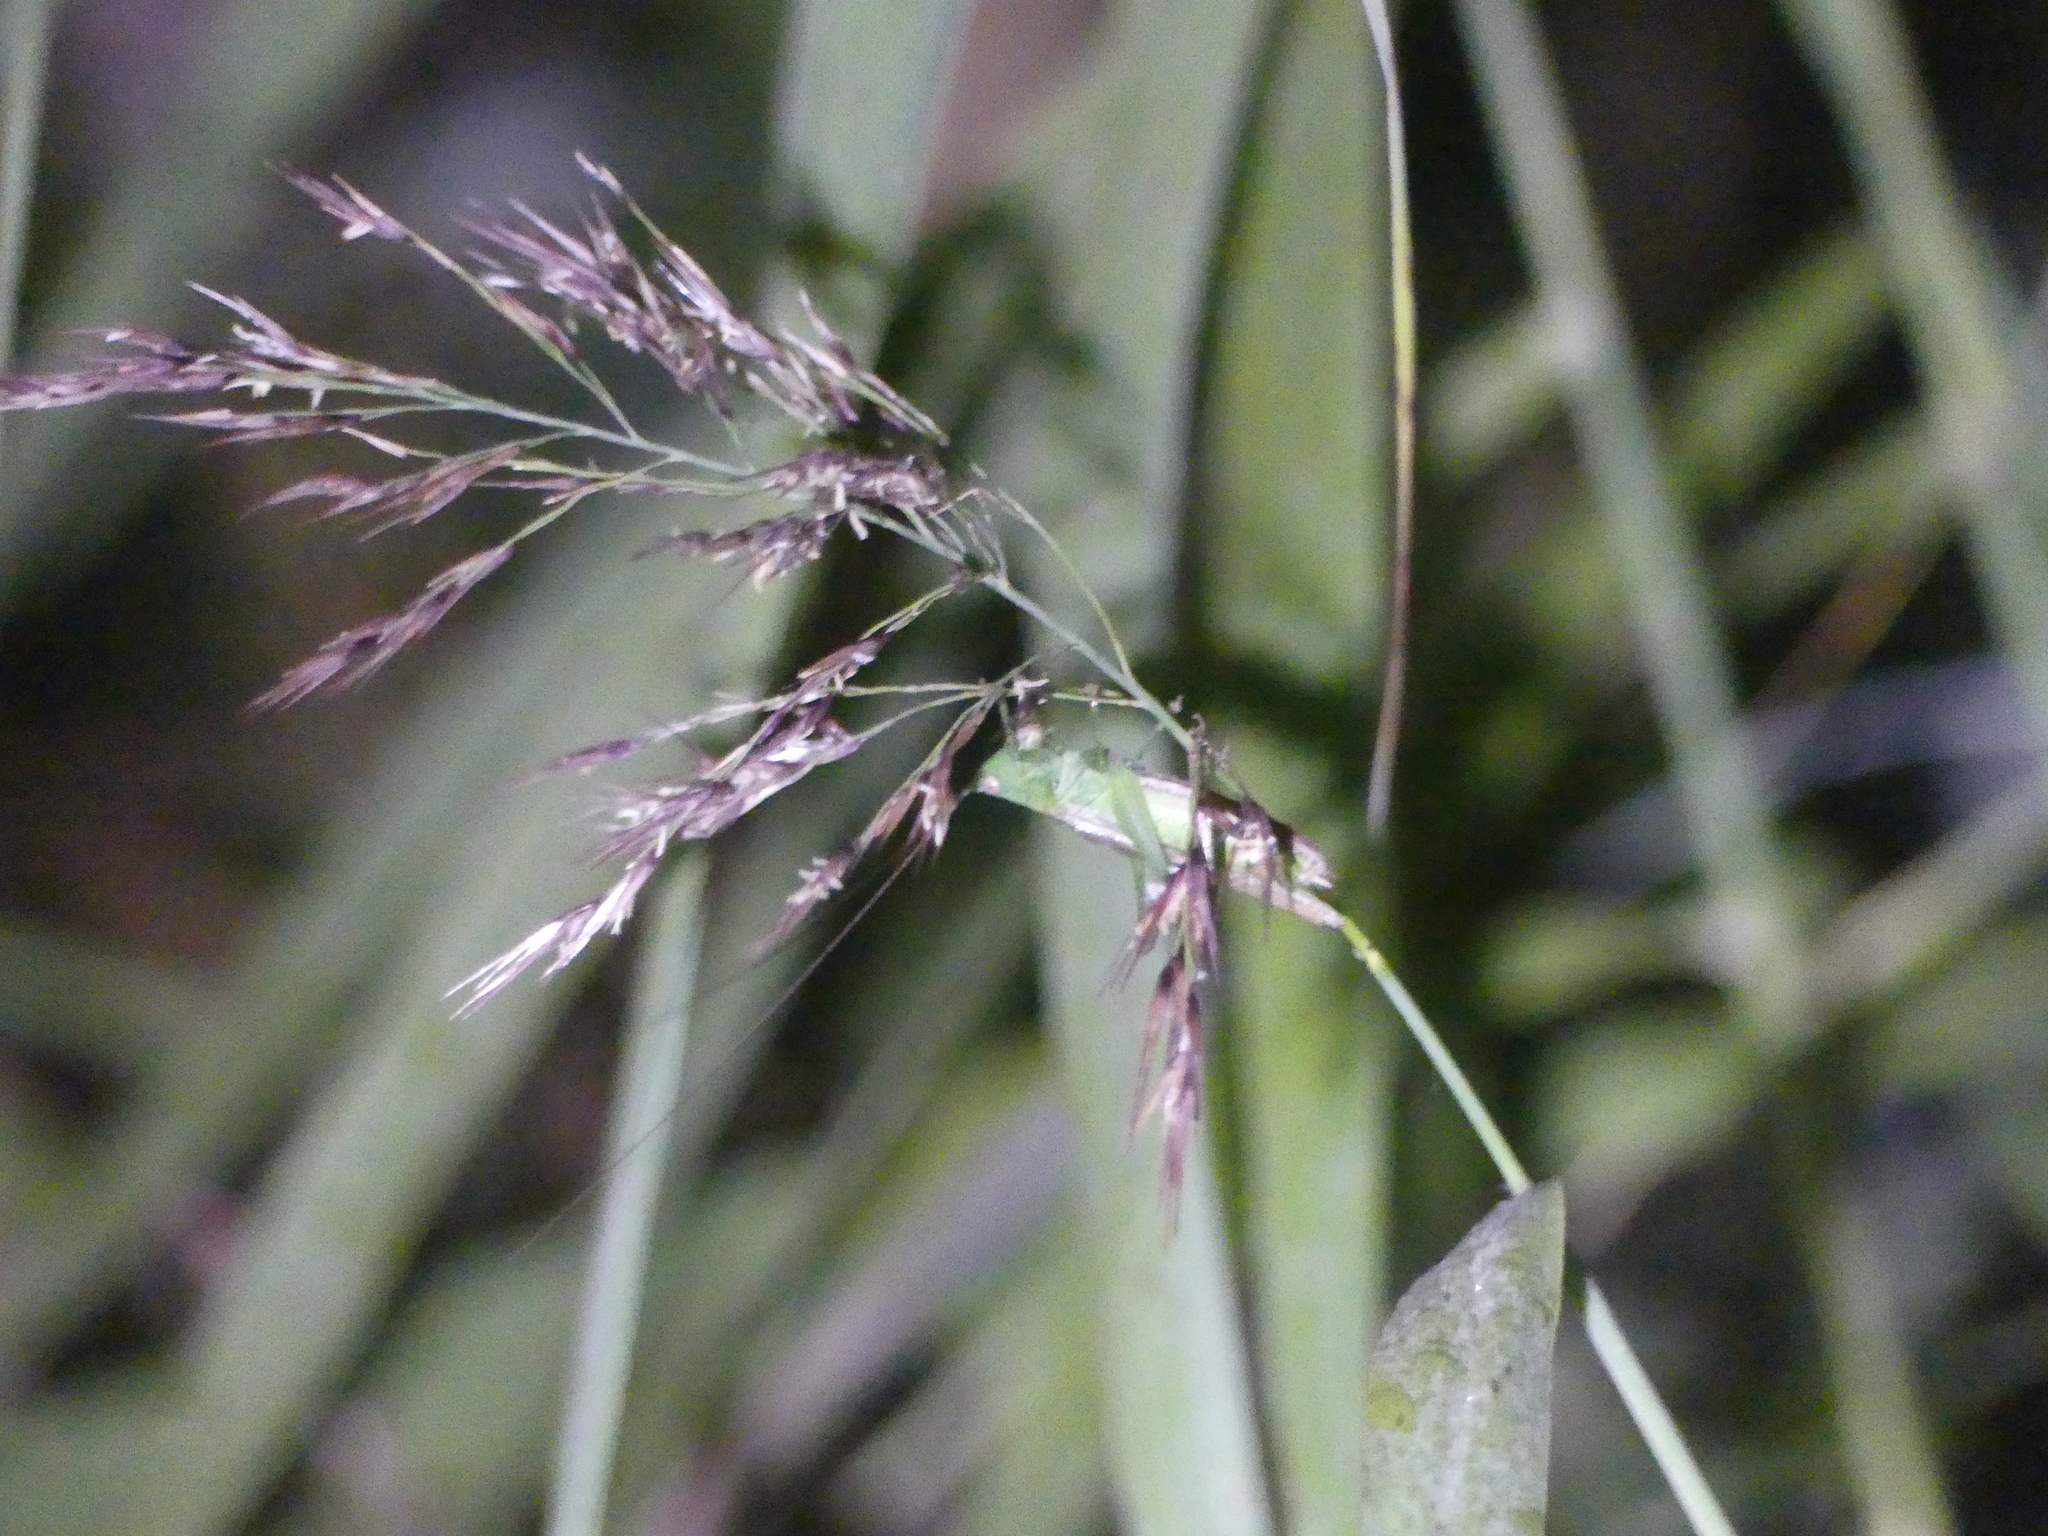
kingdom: Animalia
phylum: Arthropoda
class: Insecta
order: Orthoptera
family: Tettigoniidae
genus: Conocephalus
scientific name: Conocephalus fuscus
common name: Long-winged conehead
